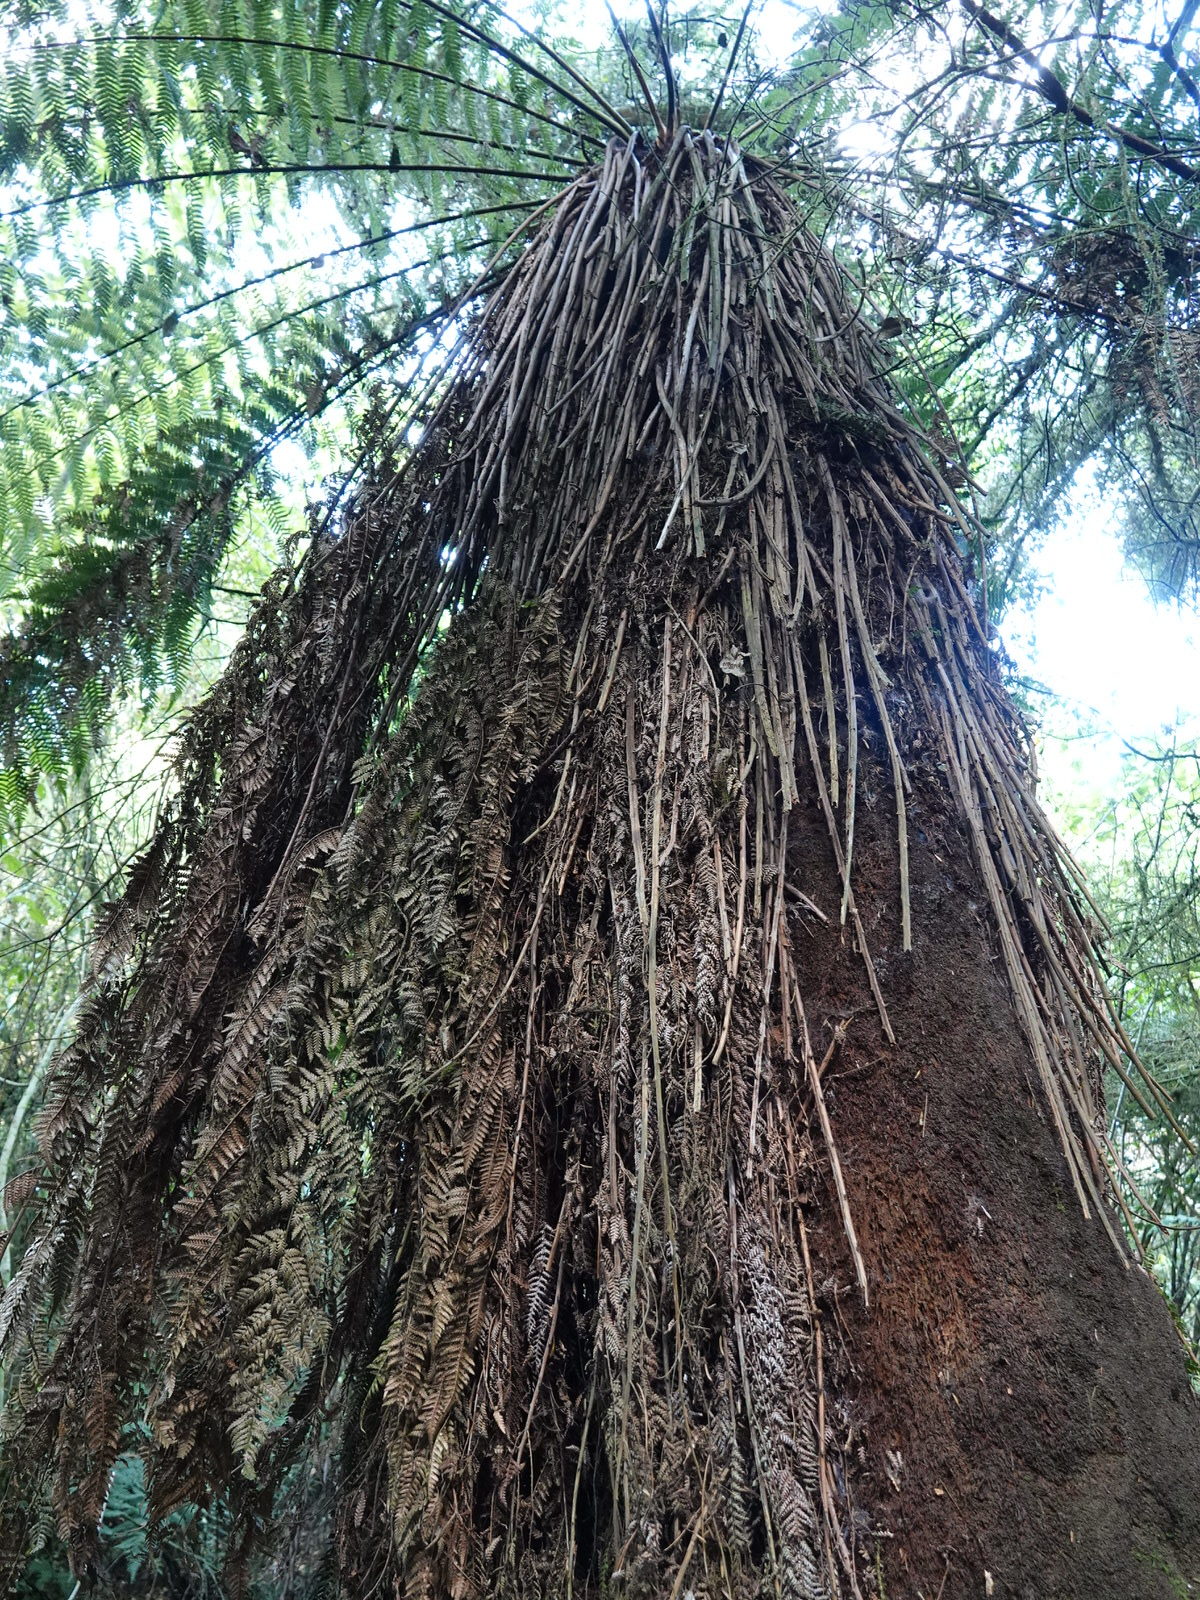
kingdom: Plantae
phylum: Tracheophyta
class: Polypodiopsida
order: Cyatheales
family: Dicksoniaceae
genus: Dicksonia
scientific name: Dicksonia fibrosa
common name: Golden tree fern
